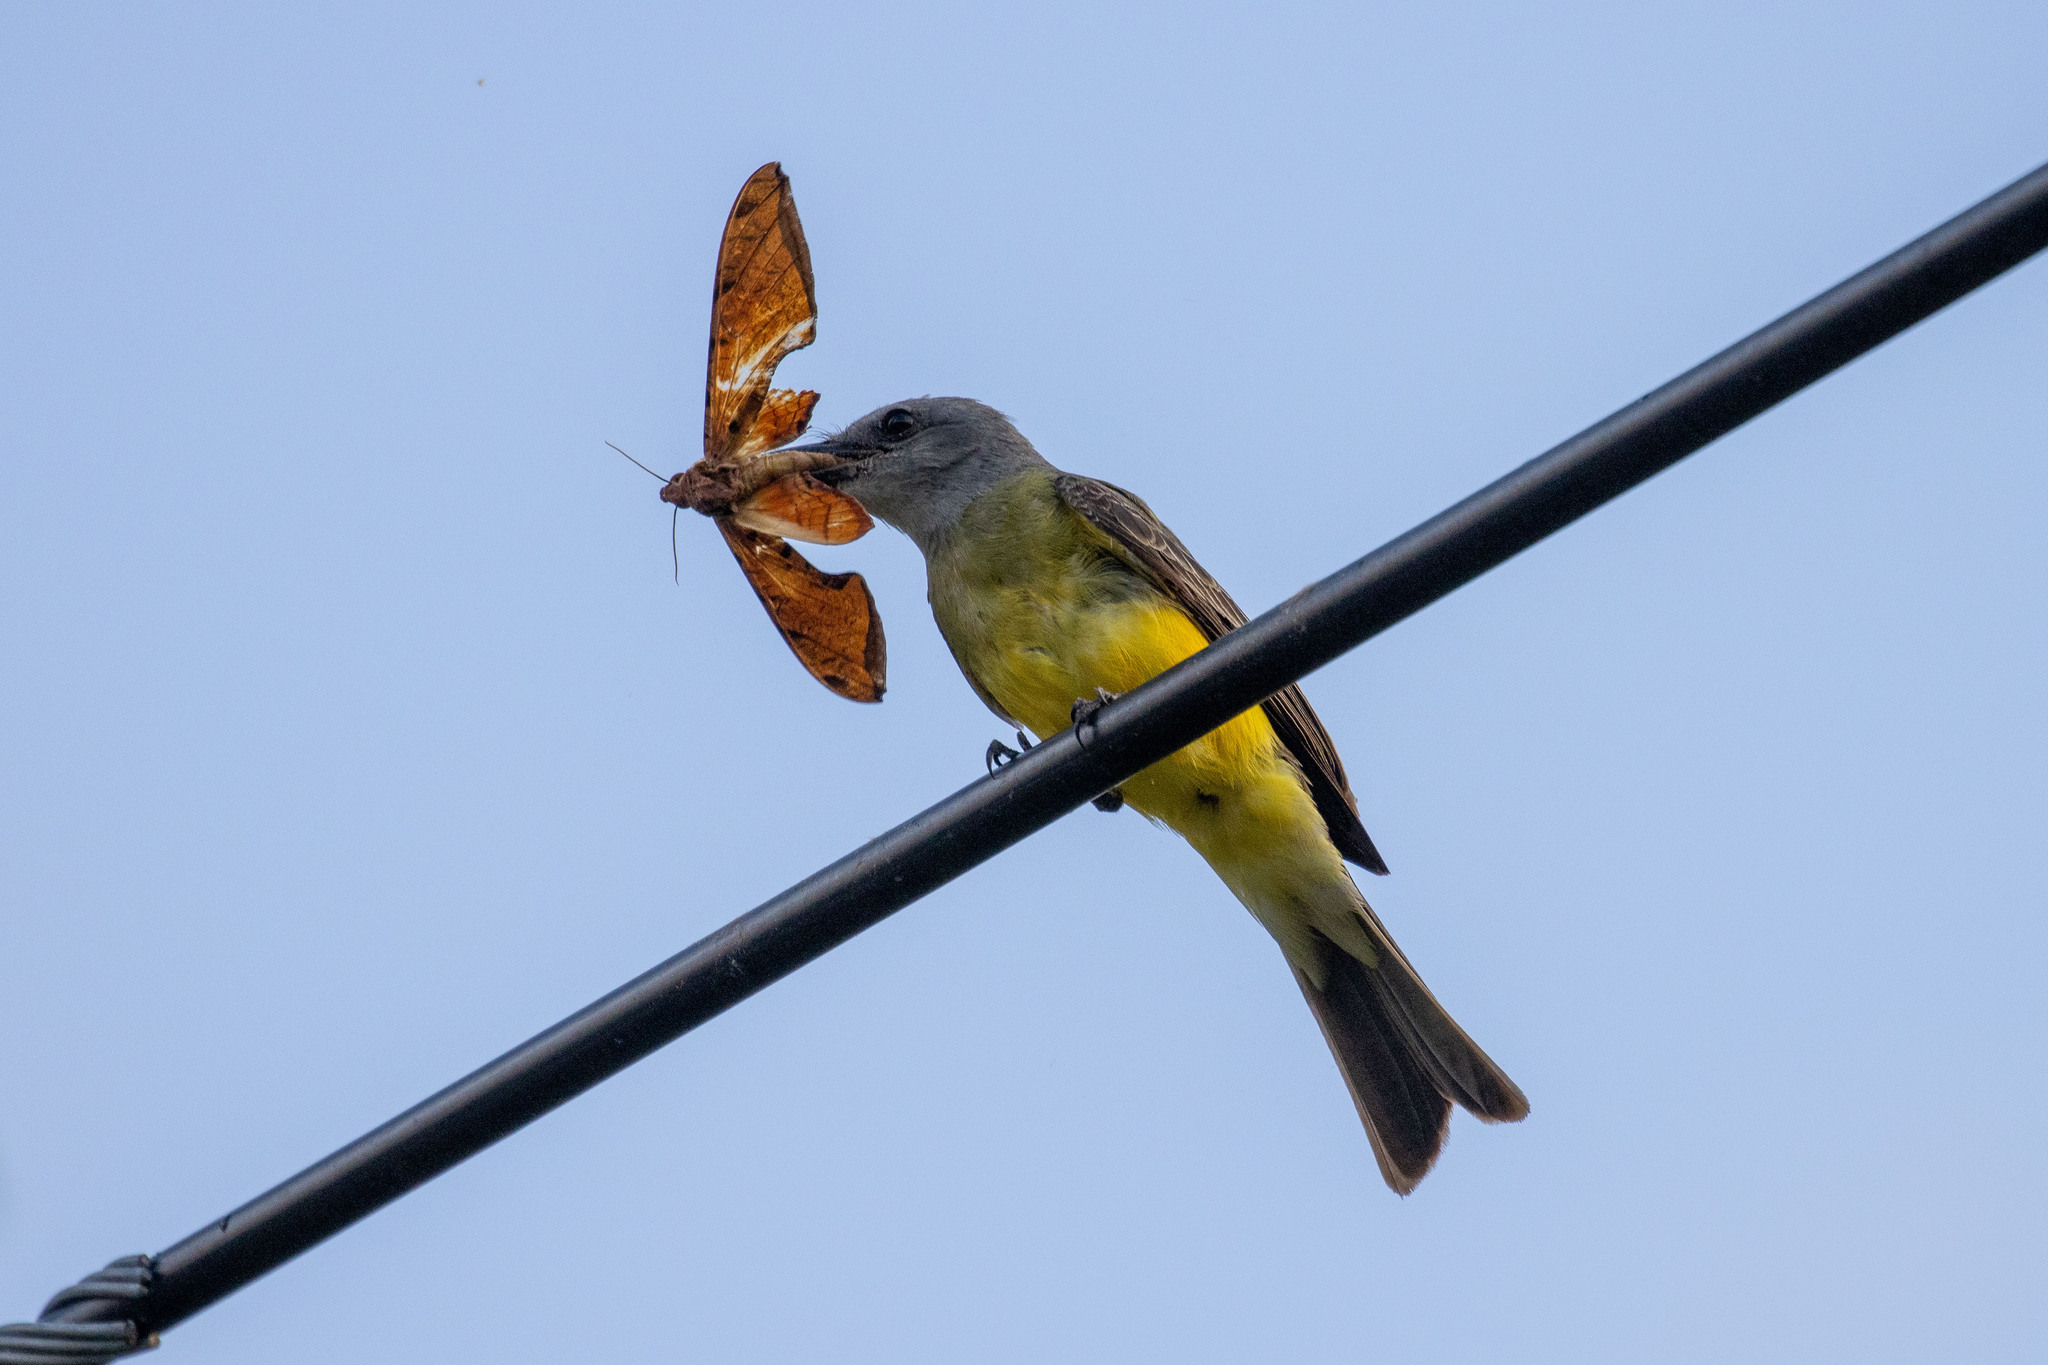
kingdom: Animalia
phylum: Chordata
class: Aves
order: Passeriformes
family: Tyrannidae
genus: Tyrannus
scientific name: Tyrannus melancholicus
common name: Tropical kingbird
